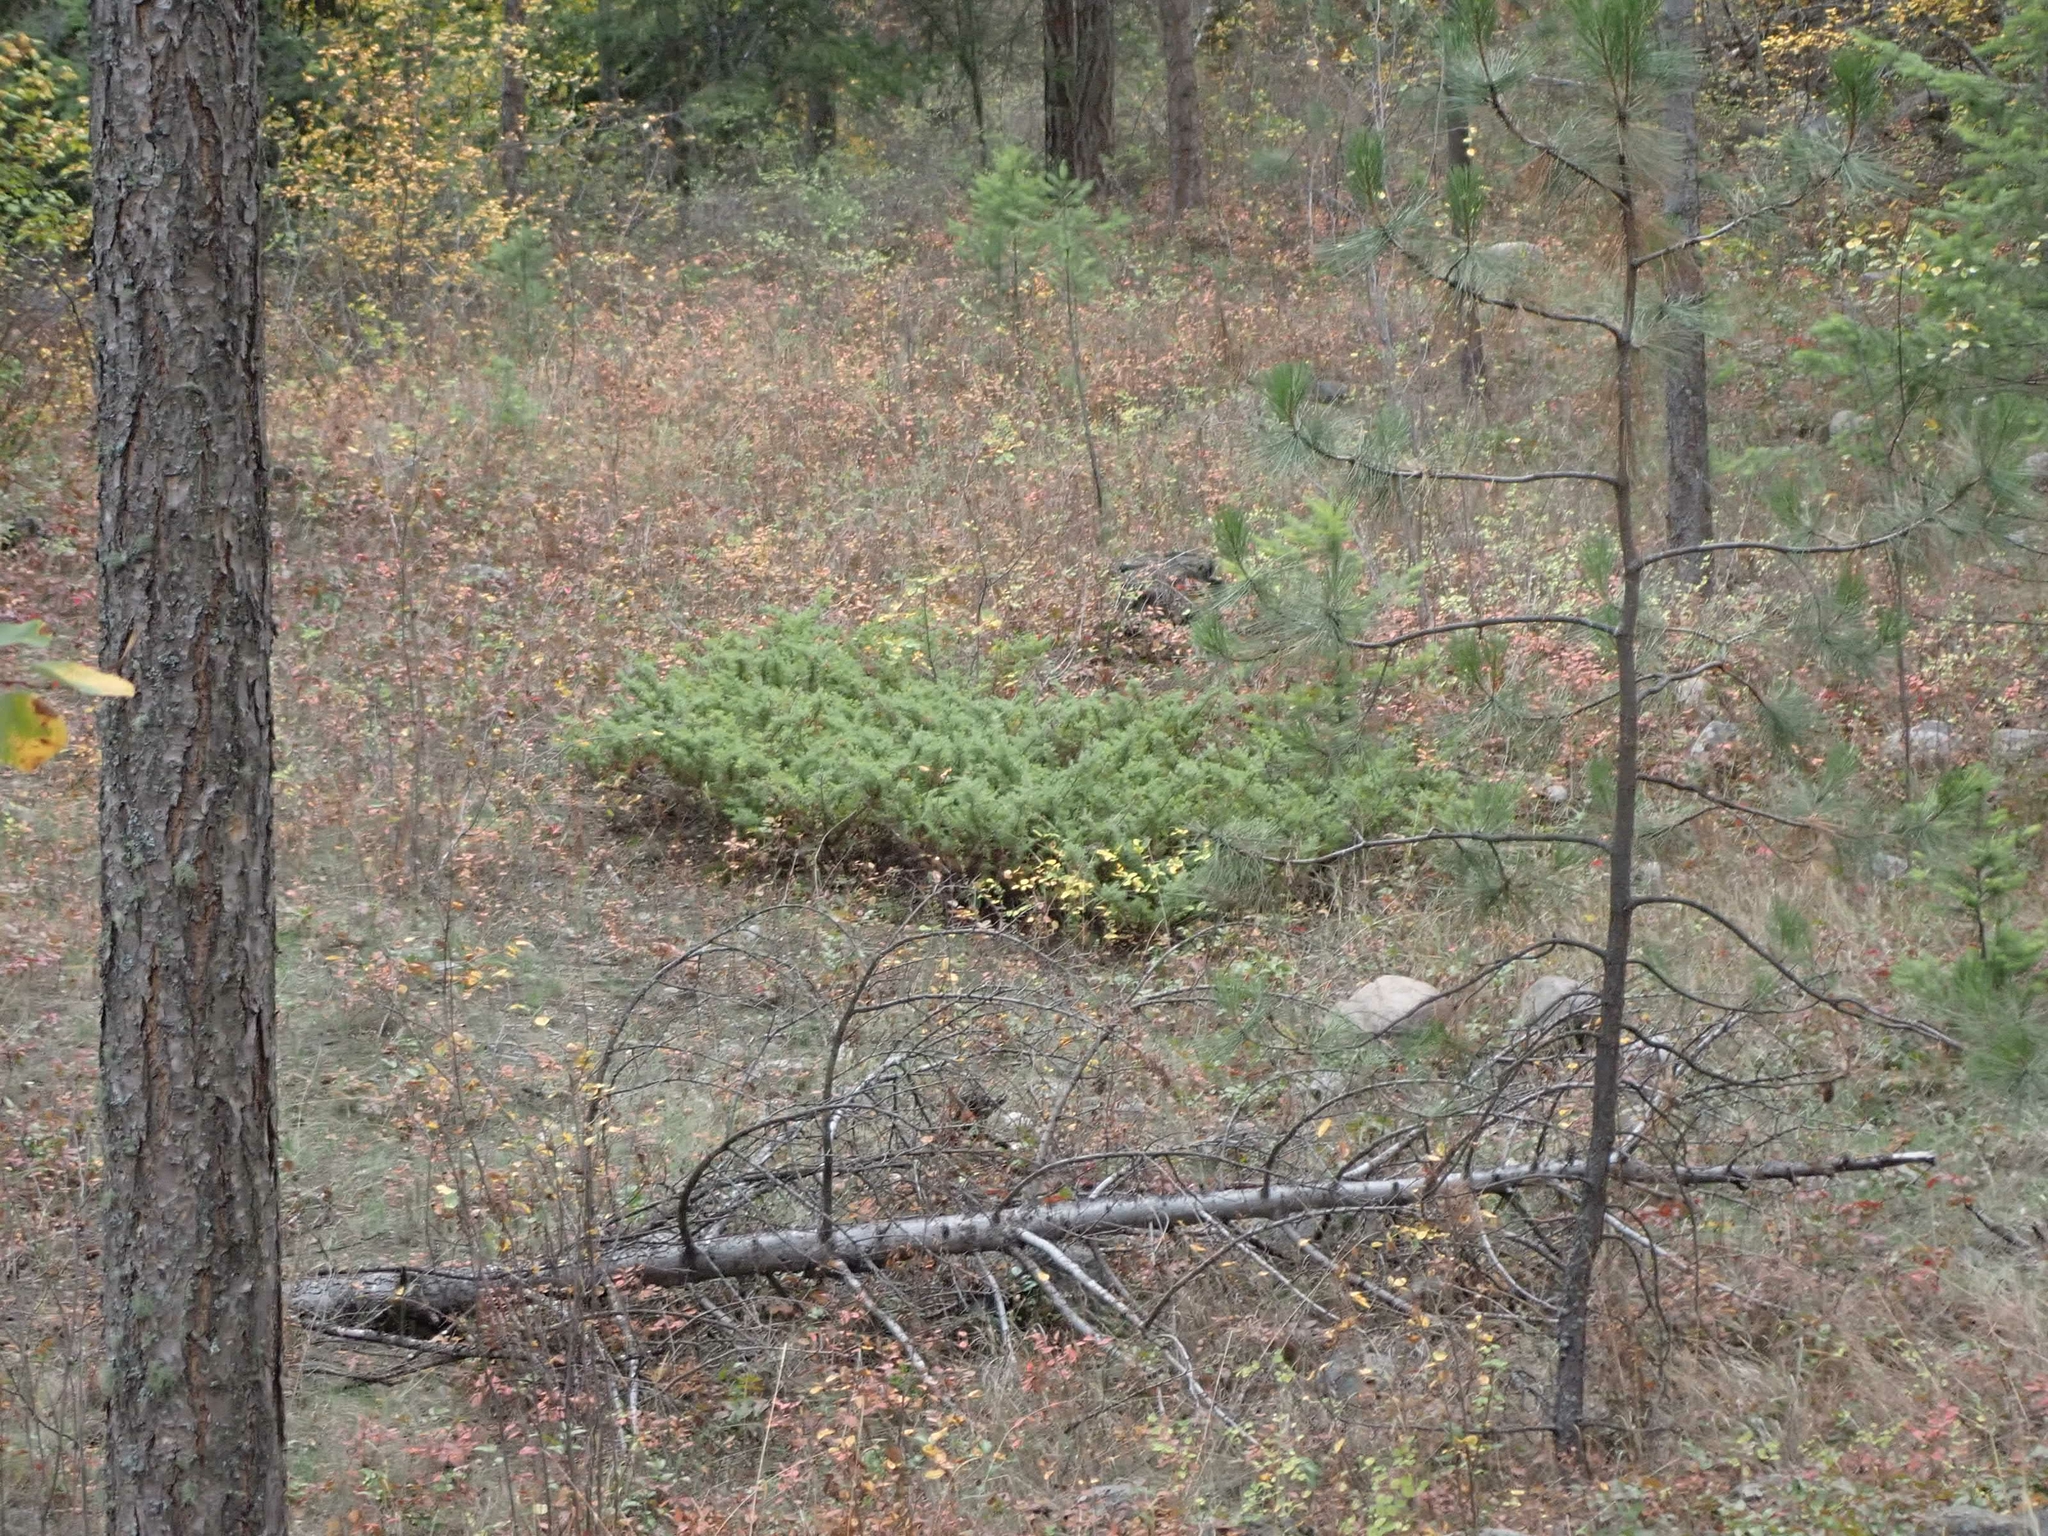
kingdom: Plantae
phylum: Tracheophyta
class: Pinopsida
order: Pinales
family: Cupressaceae
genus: Juniperus
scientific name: Juniperus communis
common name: Common juniper
